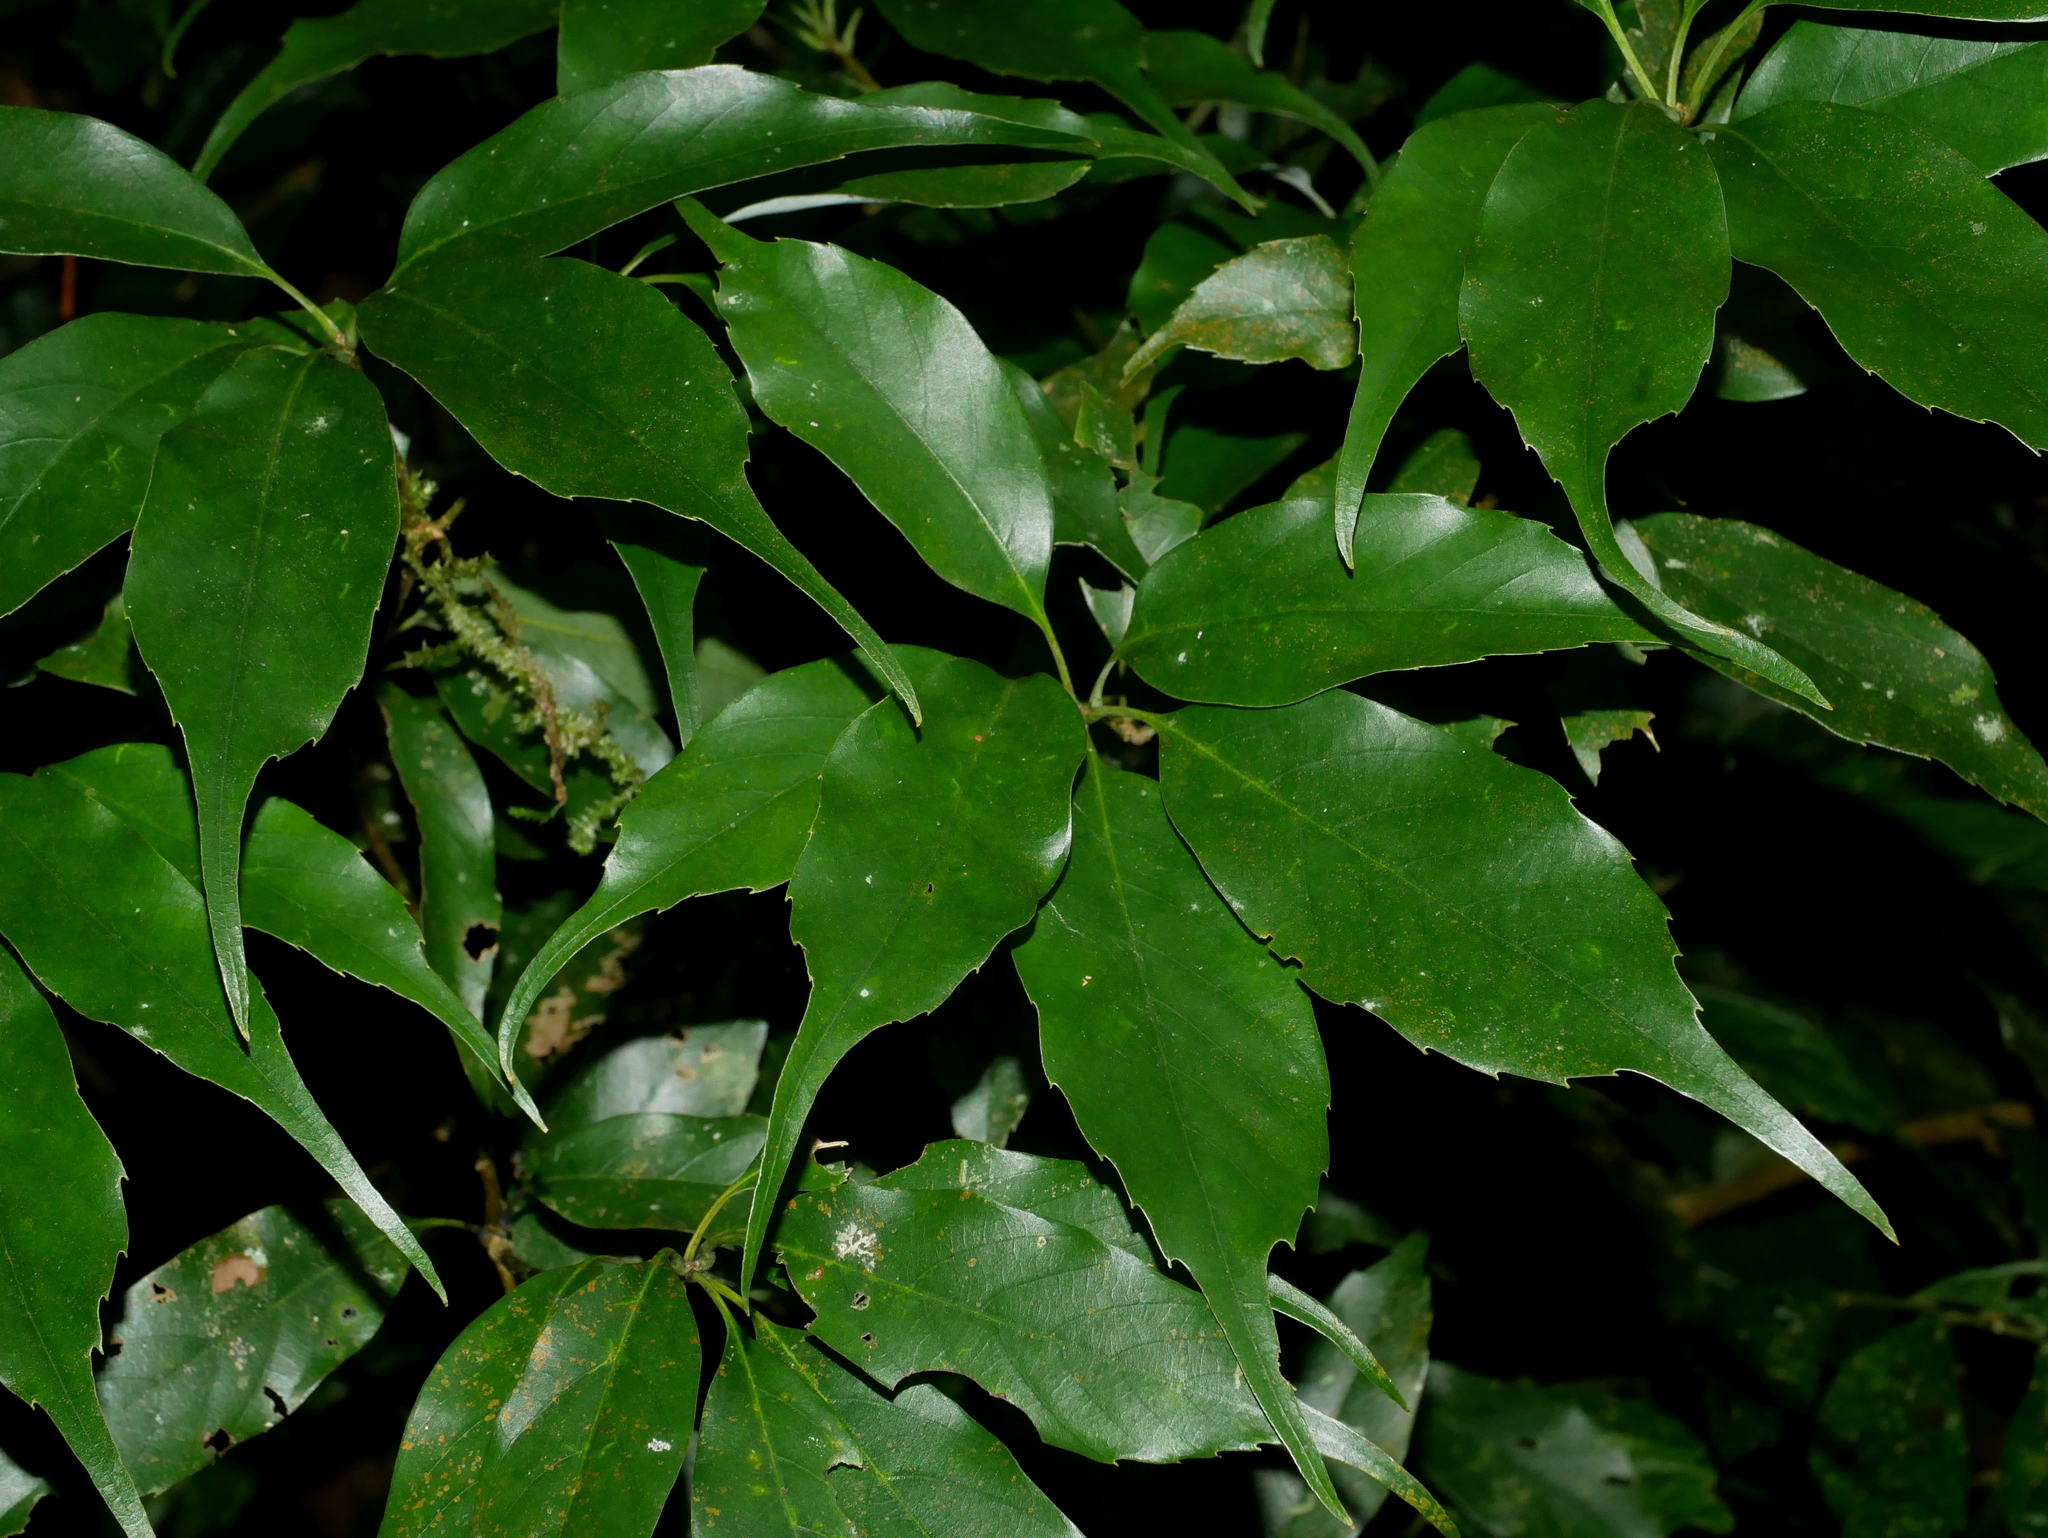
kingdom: Plantae
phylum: Tracheophyta
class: Magnoliopsida
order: Fagales
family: Fagaceae
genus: Quercus
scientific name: Quercus longinux
